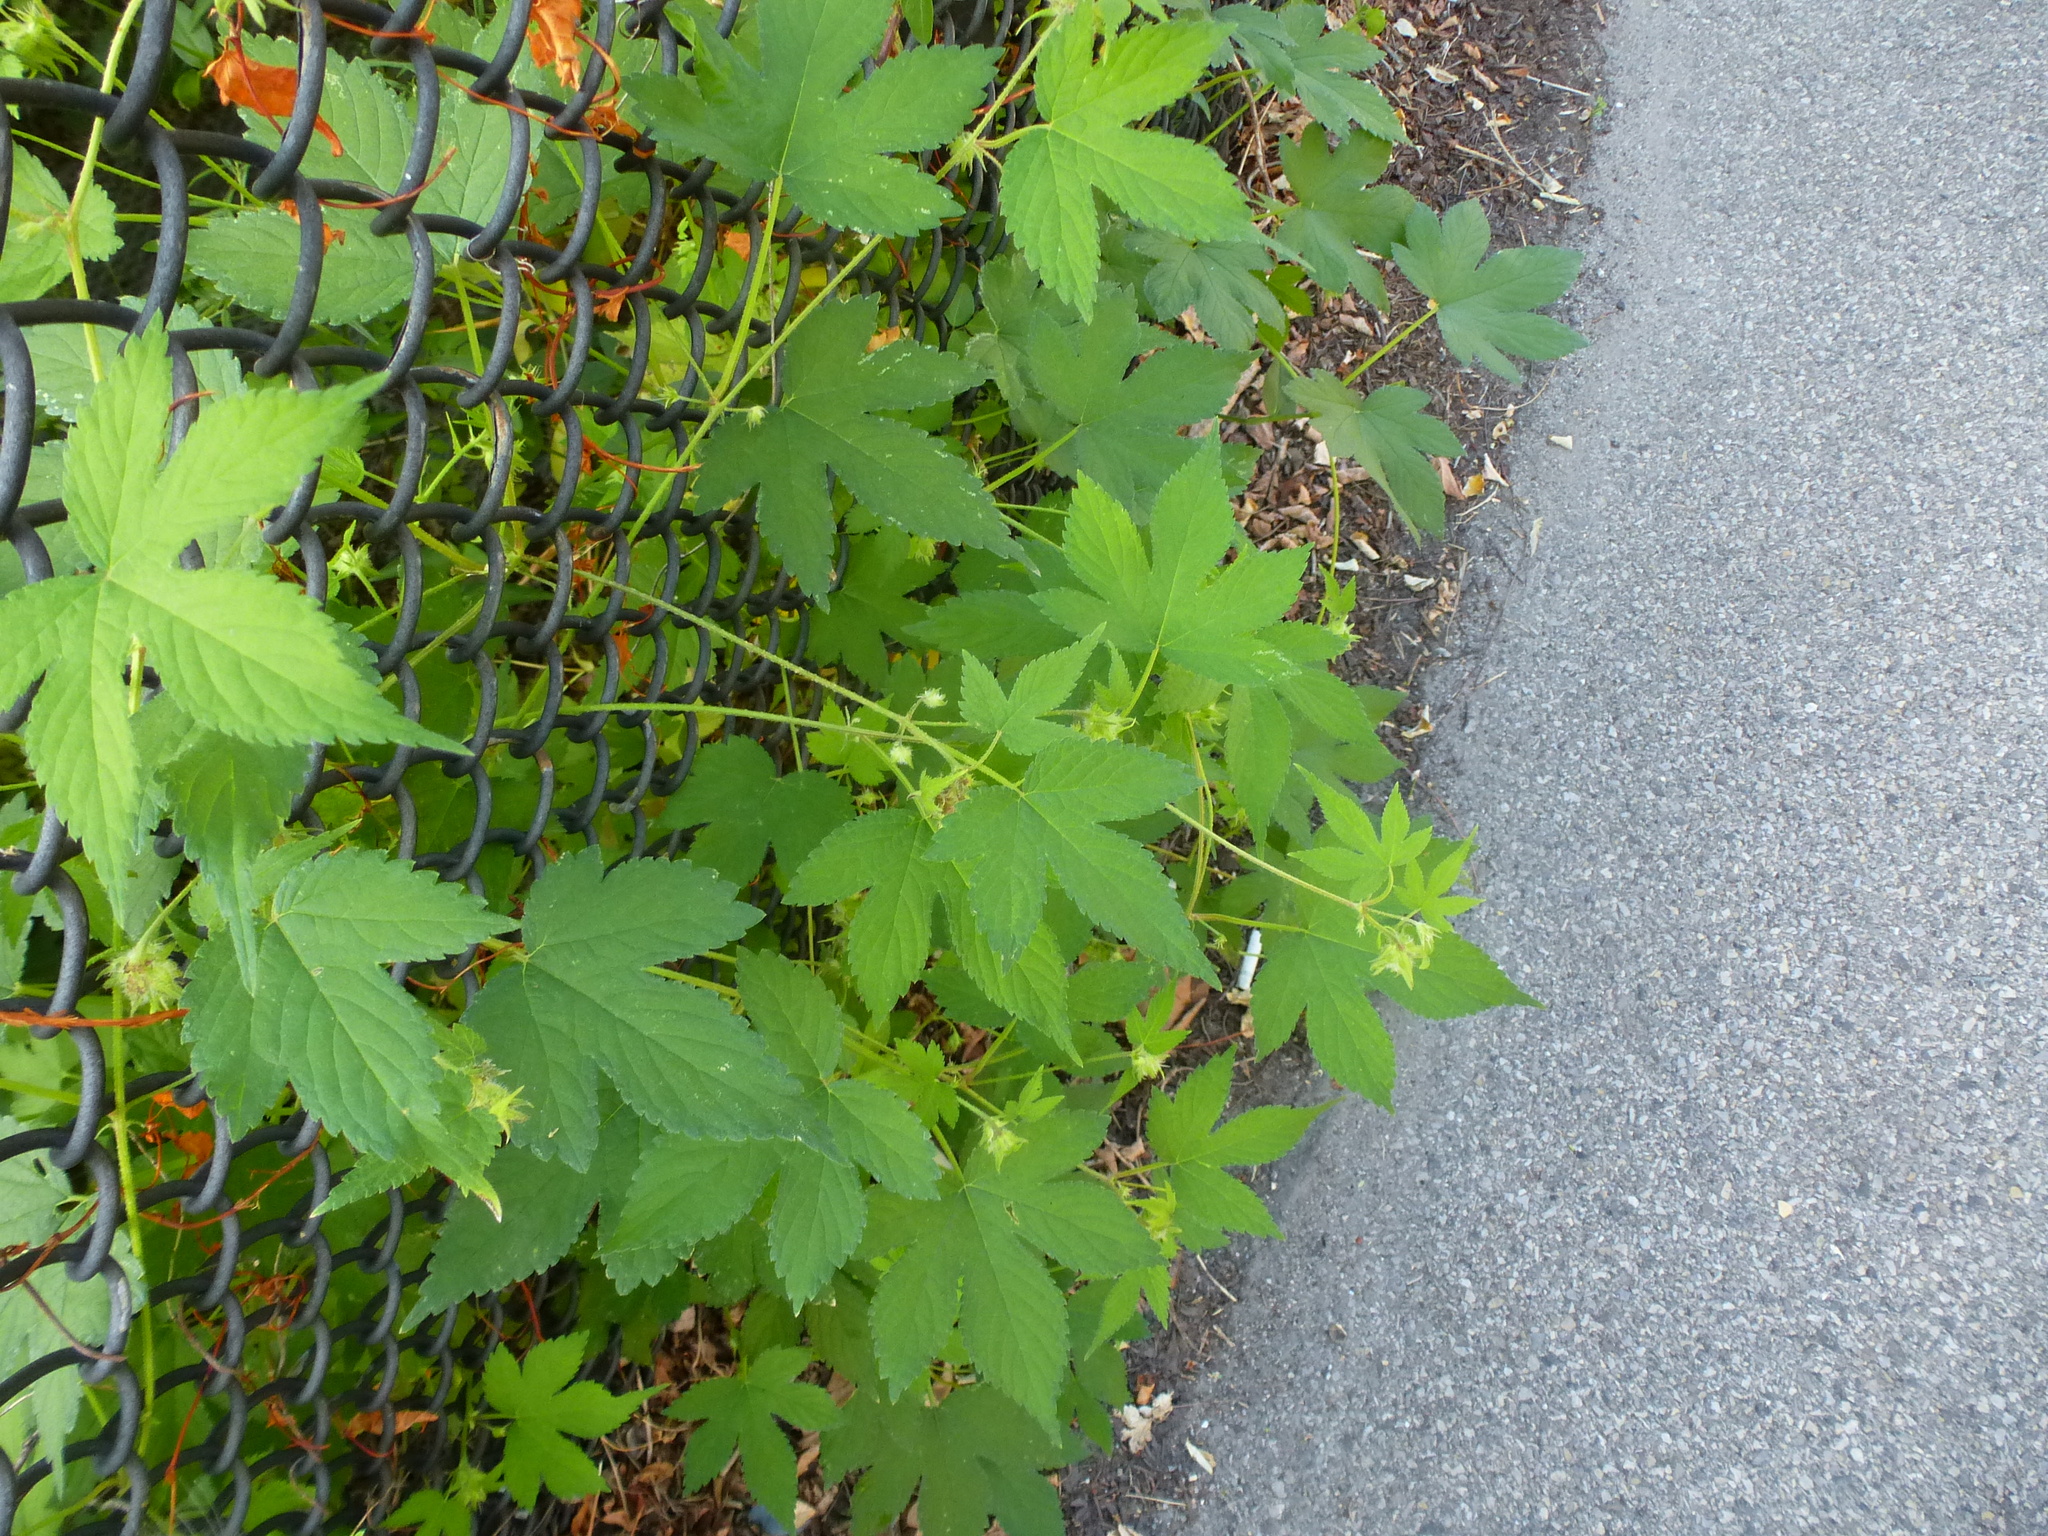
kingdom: Plantae
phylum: Tracheophyta
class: Magnoliopsida
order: Rosales
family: Cannabaceae
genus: Humulus
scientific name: Humulus scandens
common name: Japanese hop
